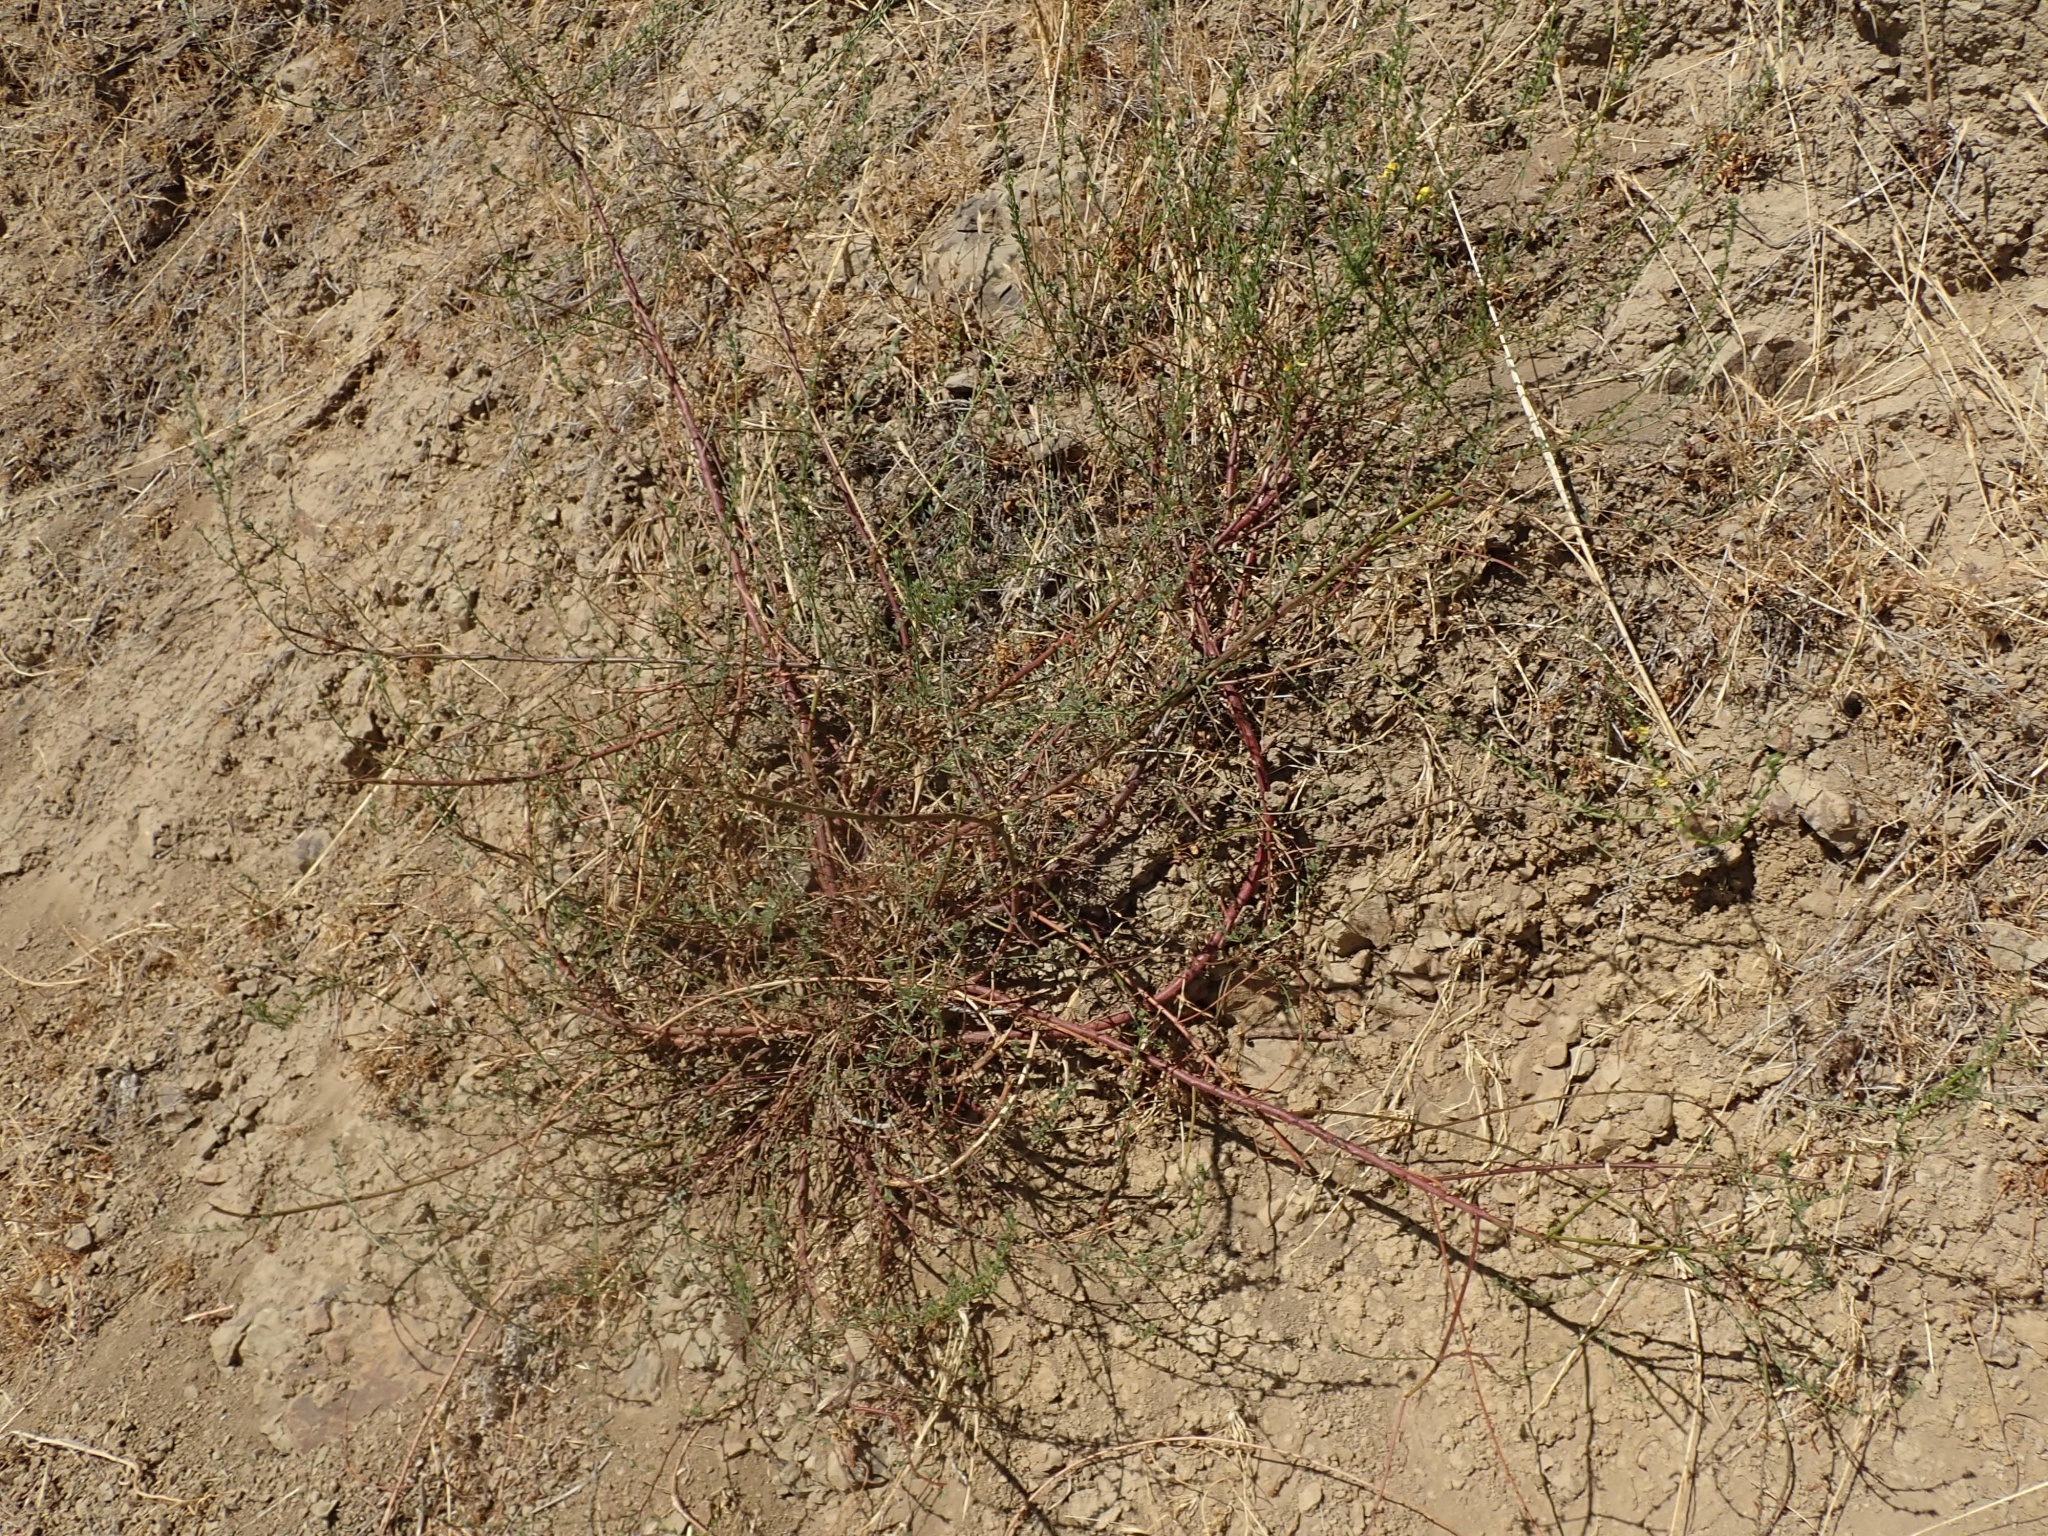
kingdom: Plantae
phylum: Tracheophyta
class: Magnoliopsida
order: Fabales
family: Fabaceae
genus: Acmispon
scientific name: Acmispon glaber
